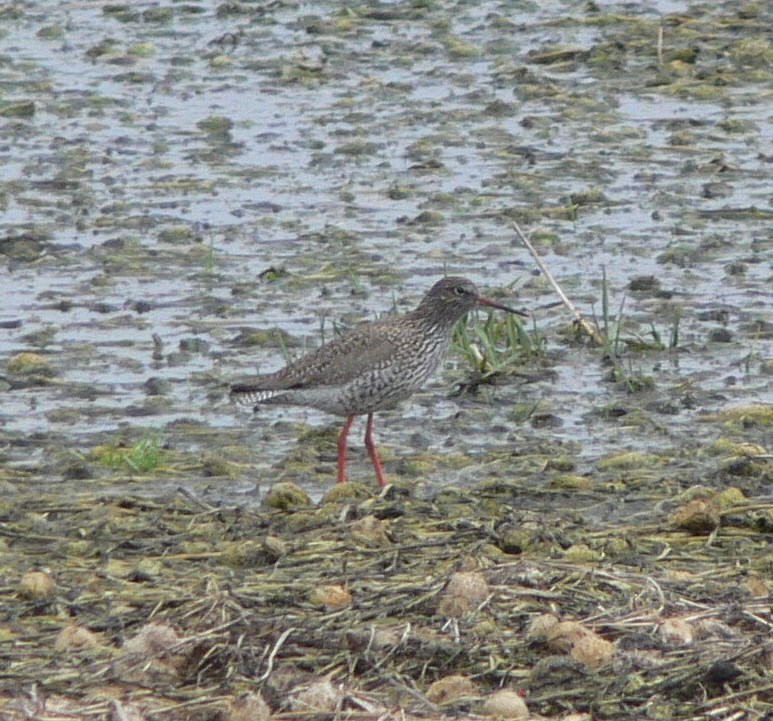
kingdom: Animalia
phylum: Chordata
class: Aves
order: Charadriiformes
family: Scolopacidae
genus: Tringa
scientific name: Tringa totanus
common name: Common redshank
